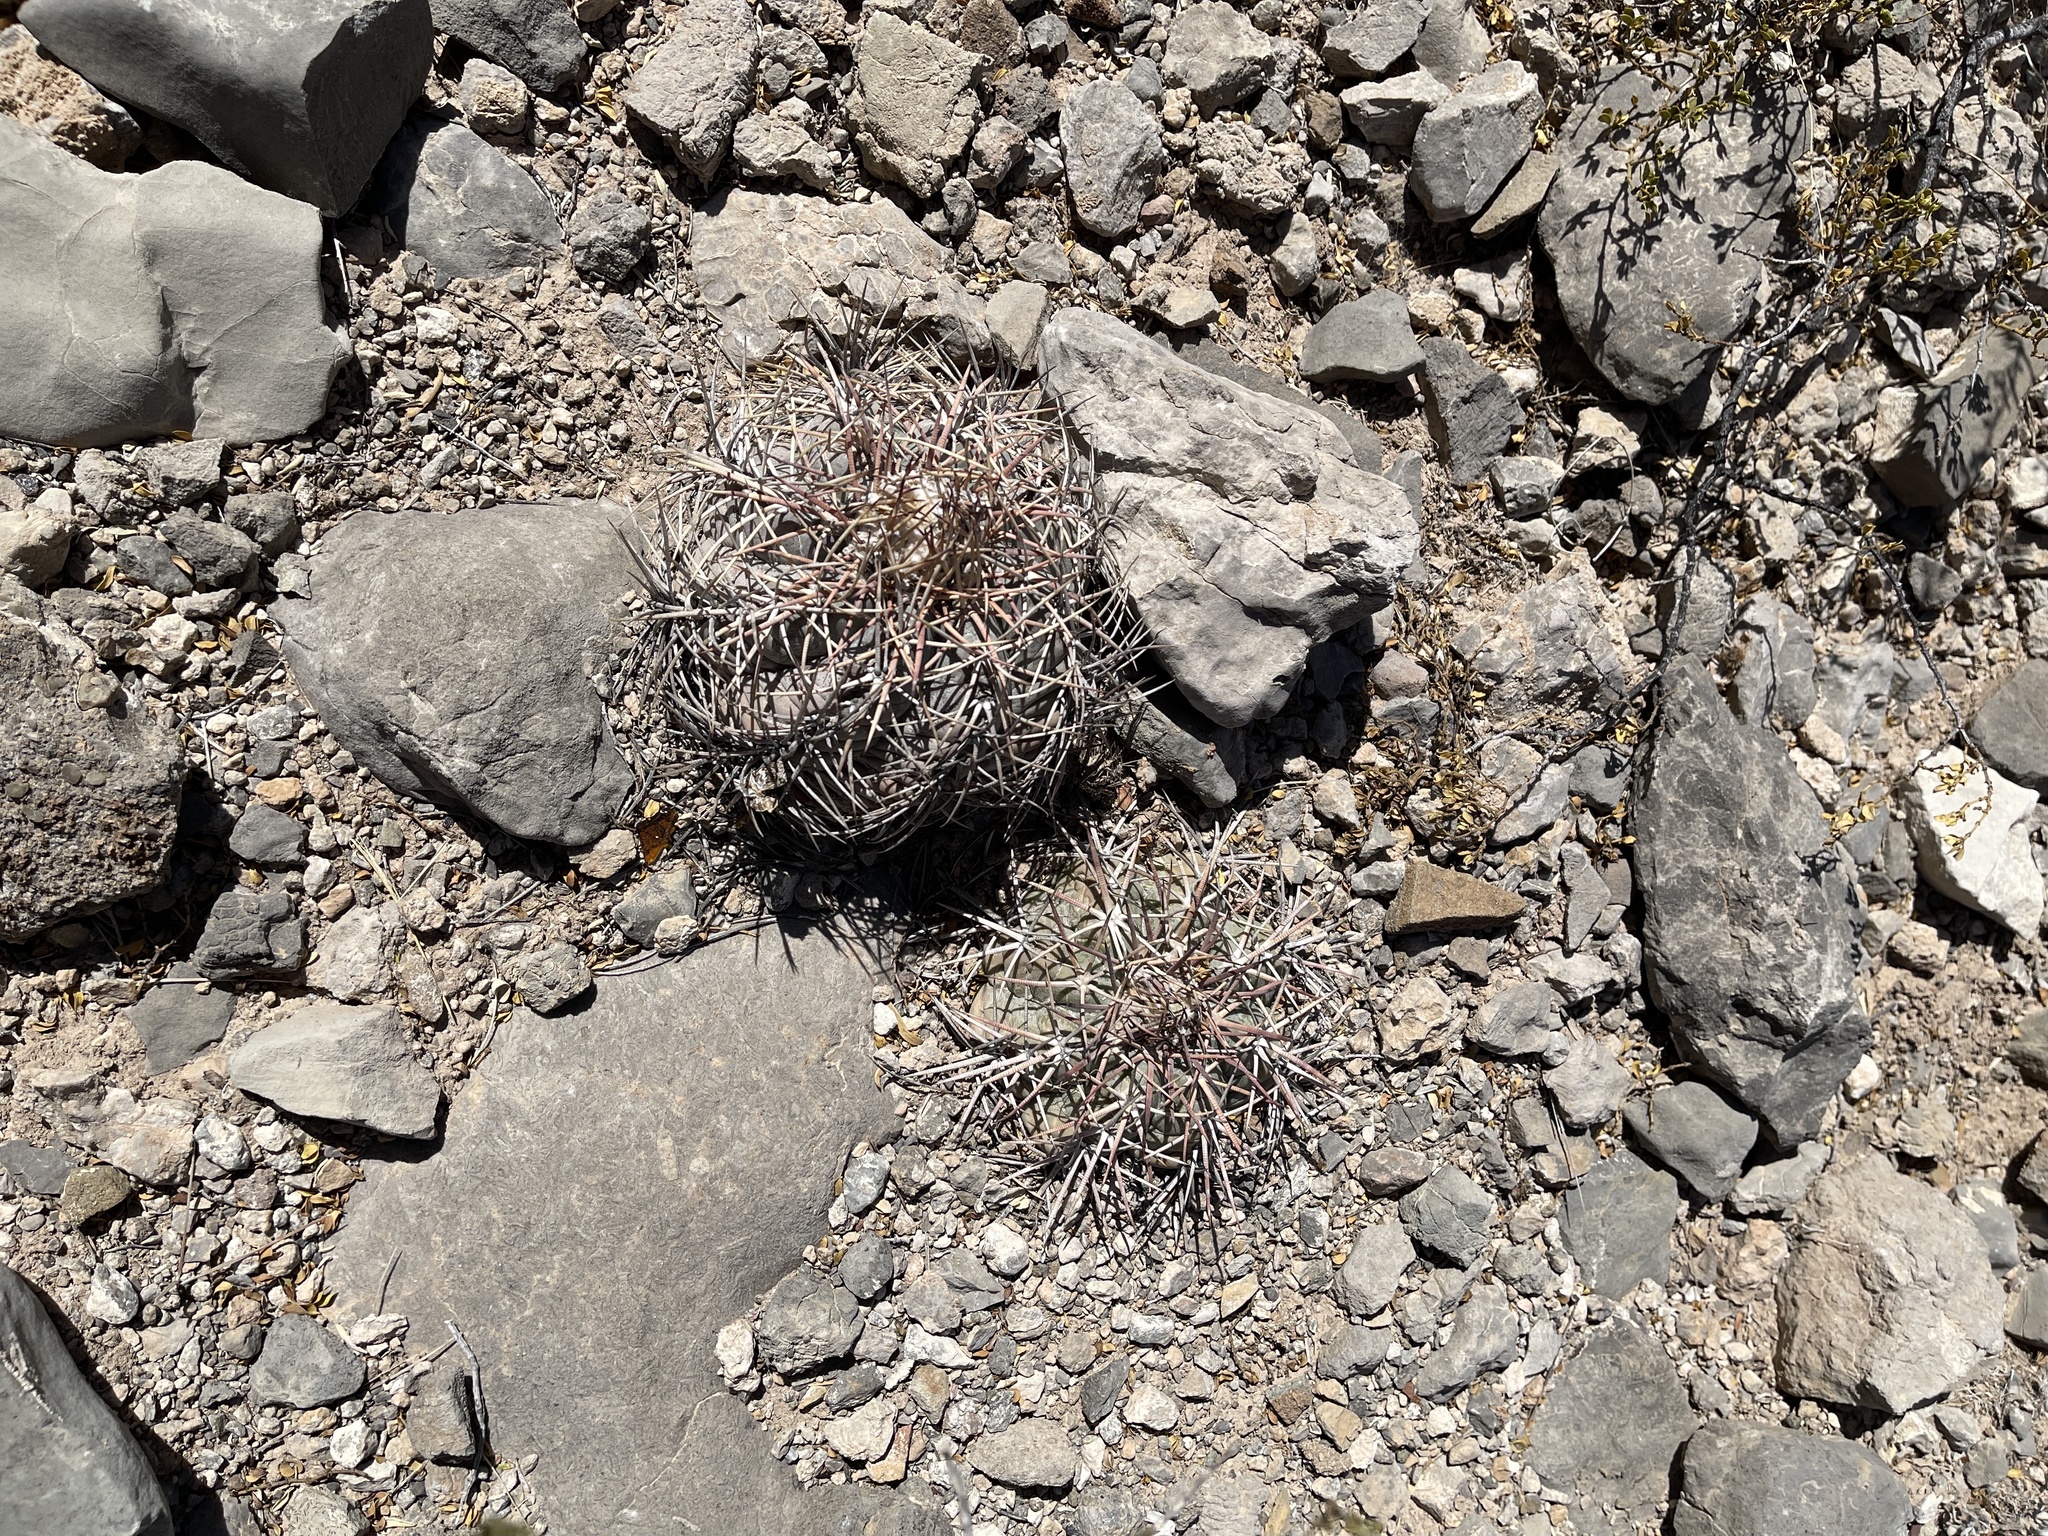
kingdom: Plantae
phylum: Tracheophyta
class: Magnoliopsida
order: Caryophyllales
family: Cactaceae
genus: Echinocactus
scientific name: Echinocactus horizonthalonius
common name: Devilshead
